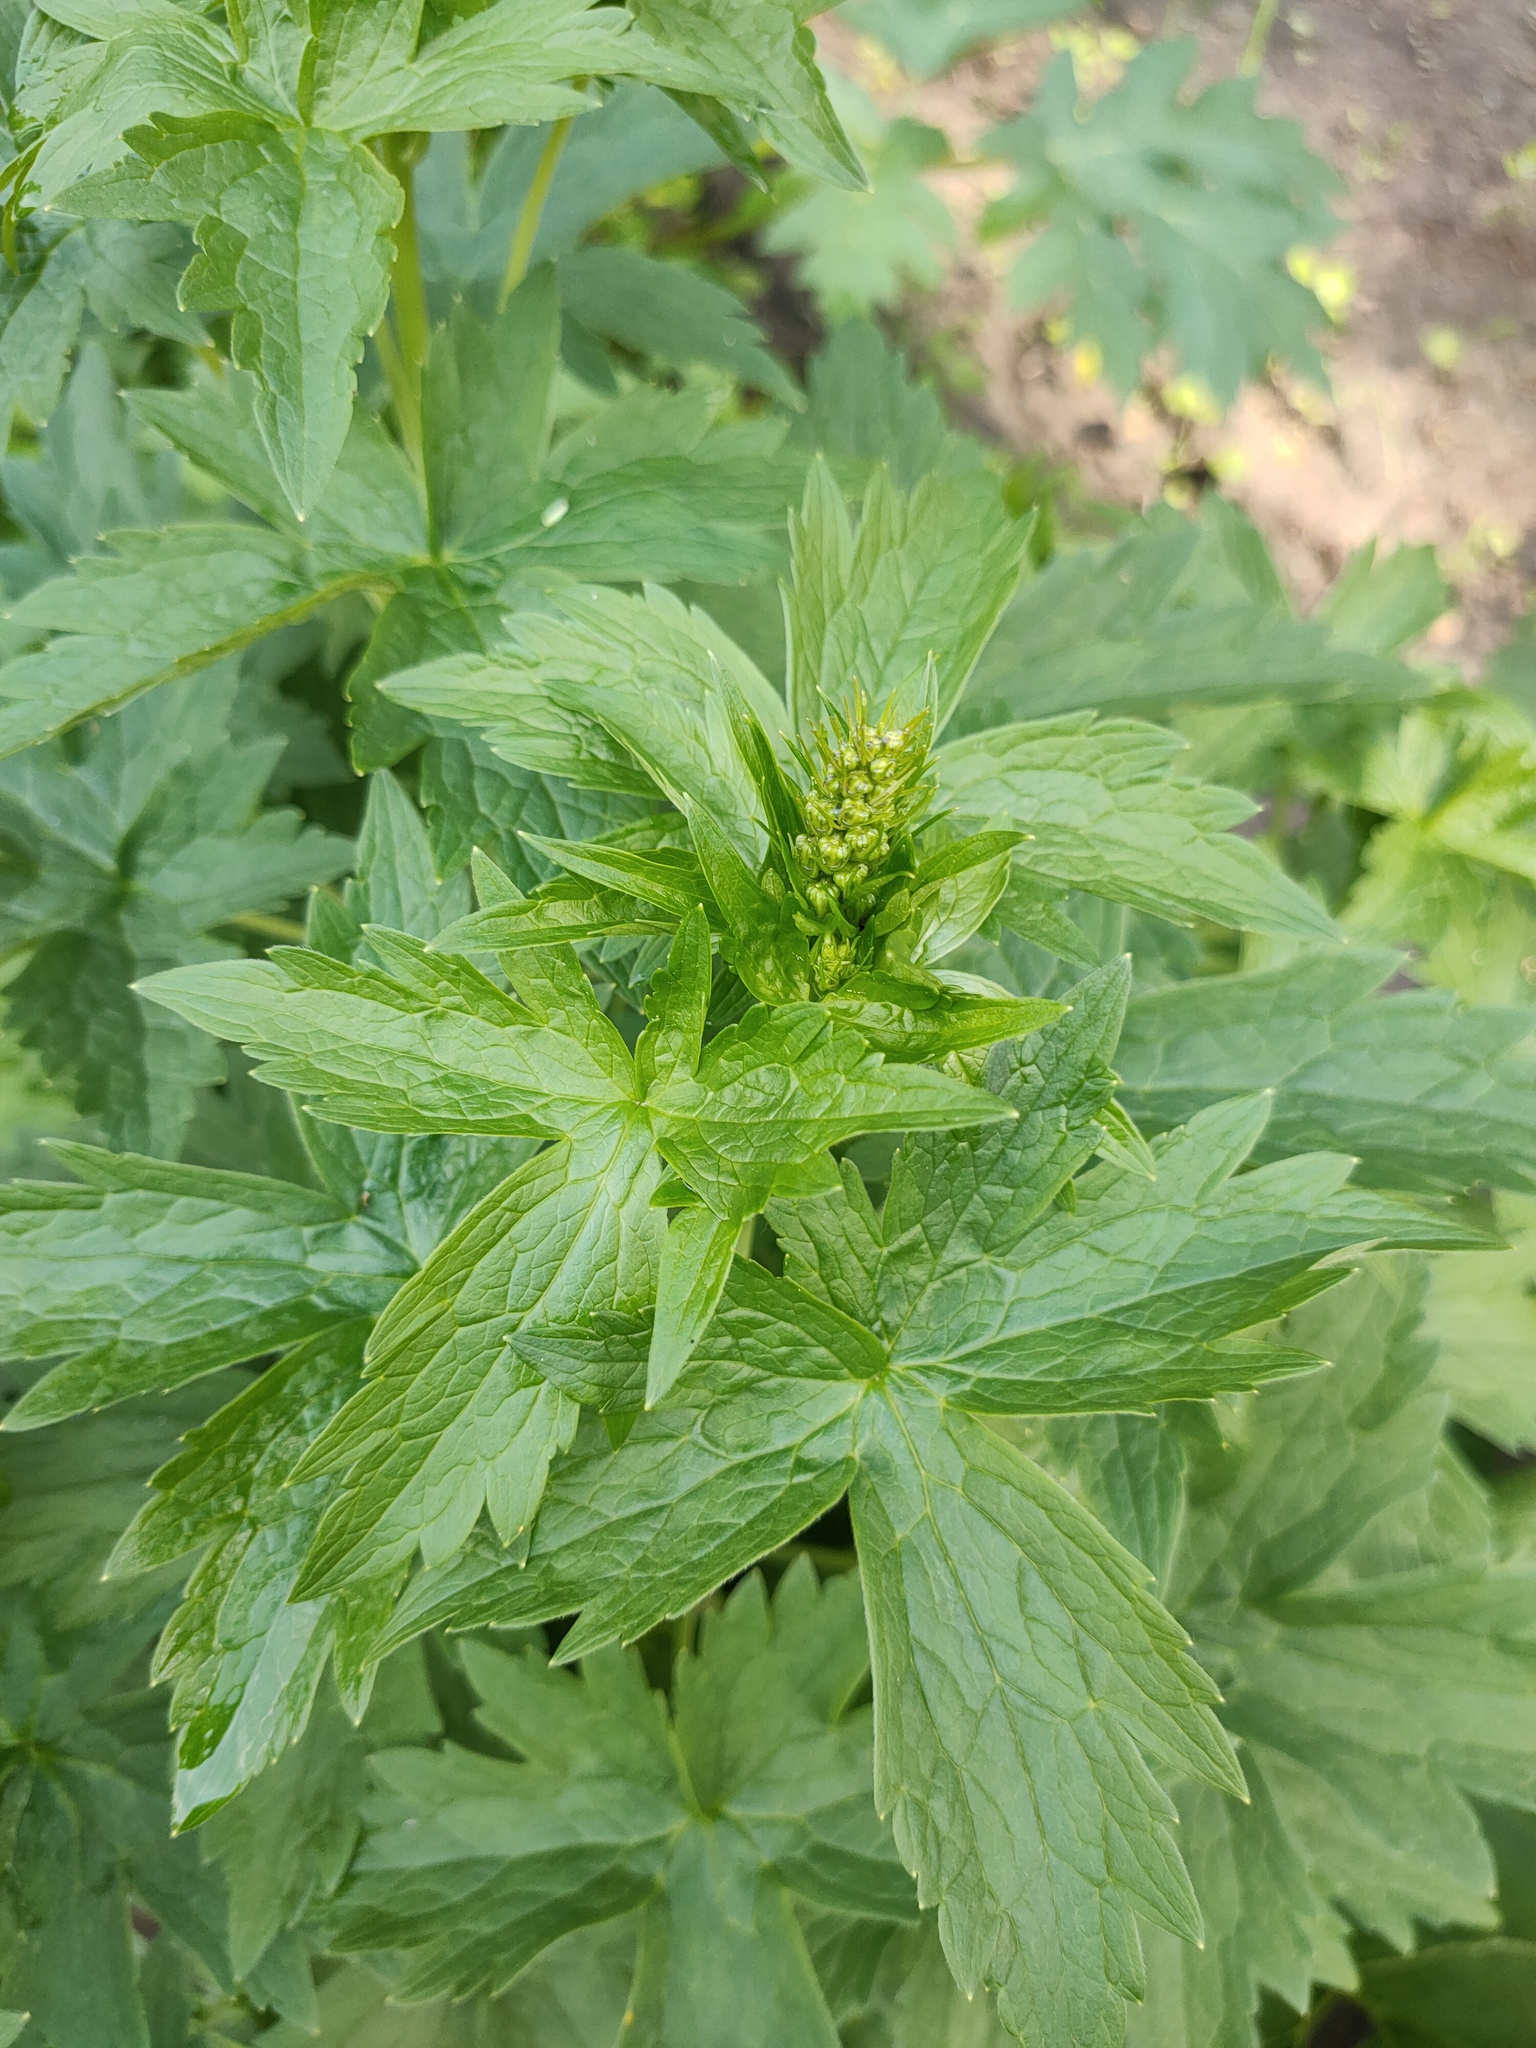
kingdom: Plantae
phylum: Tracheophyta
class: Magnoliopsida
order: Ranunculales
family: Ranunculaceae
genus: Delphinium
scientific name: Delphinium elatum
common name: Candle larkspur
